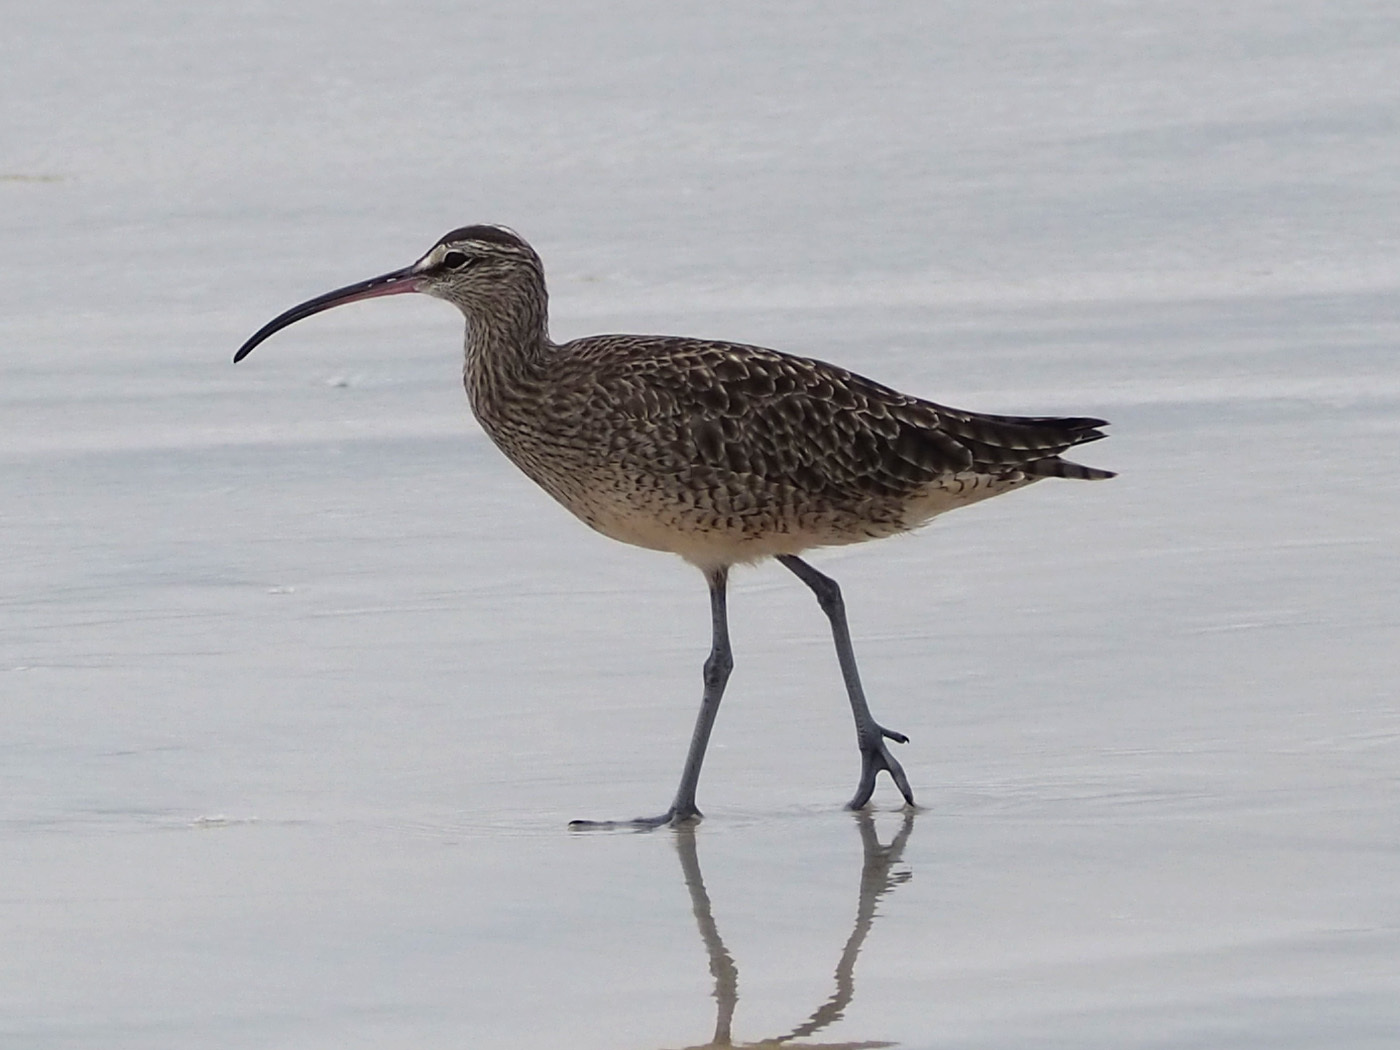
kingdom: Animalia
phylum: Chordata
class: Aves
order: Charadriiformes
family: Scolopacidae
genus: Numenius
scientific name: Numenius phaeopus
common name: Whimbrel
